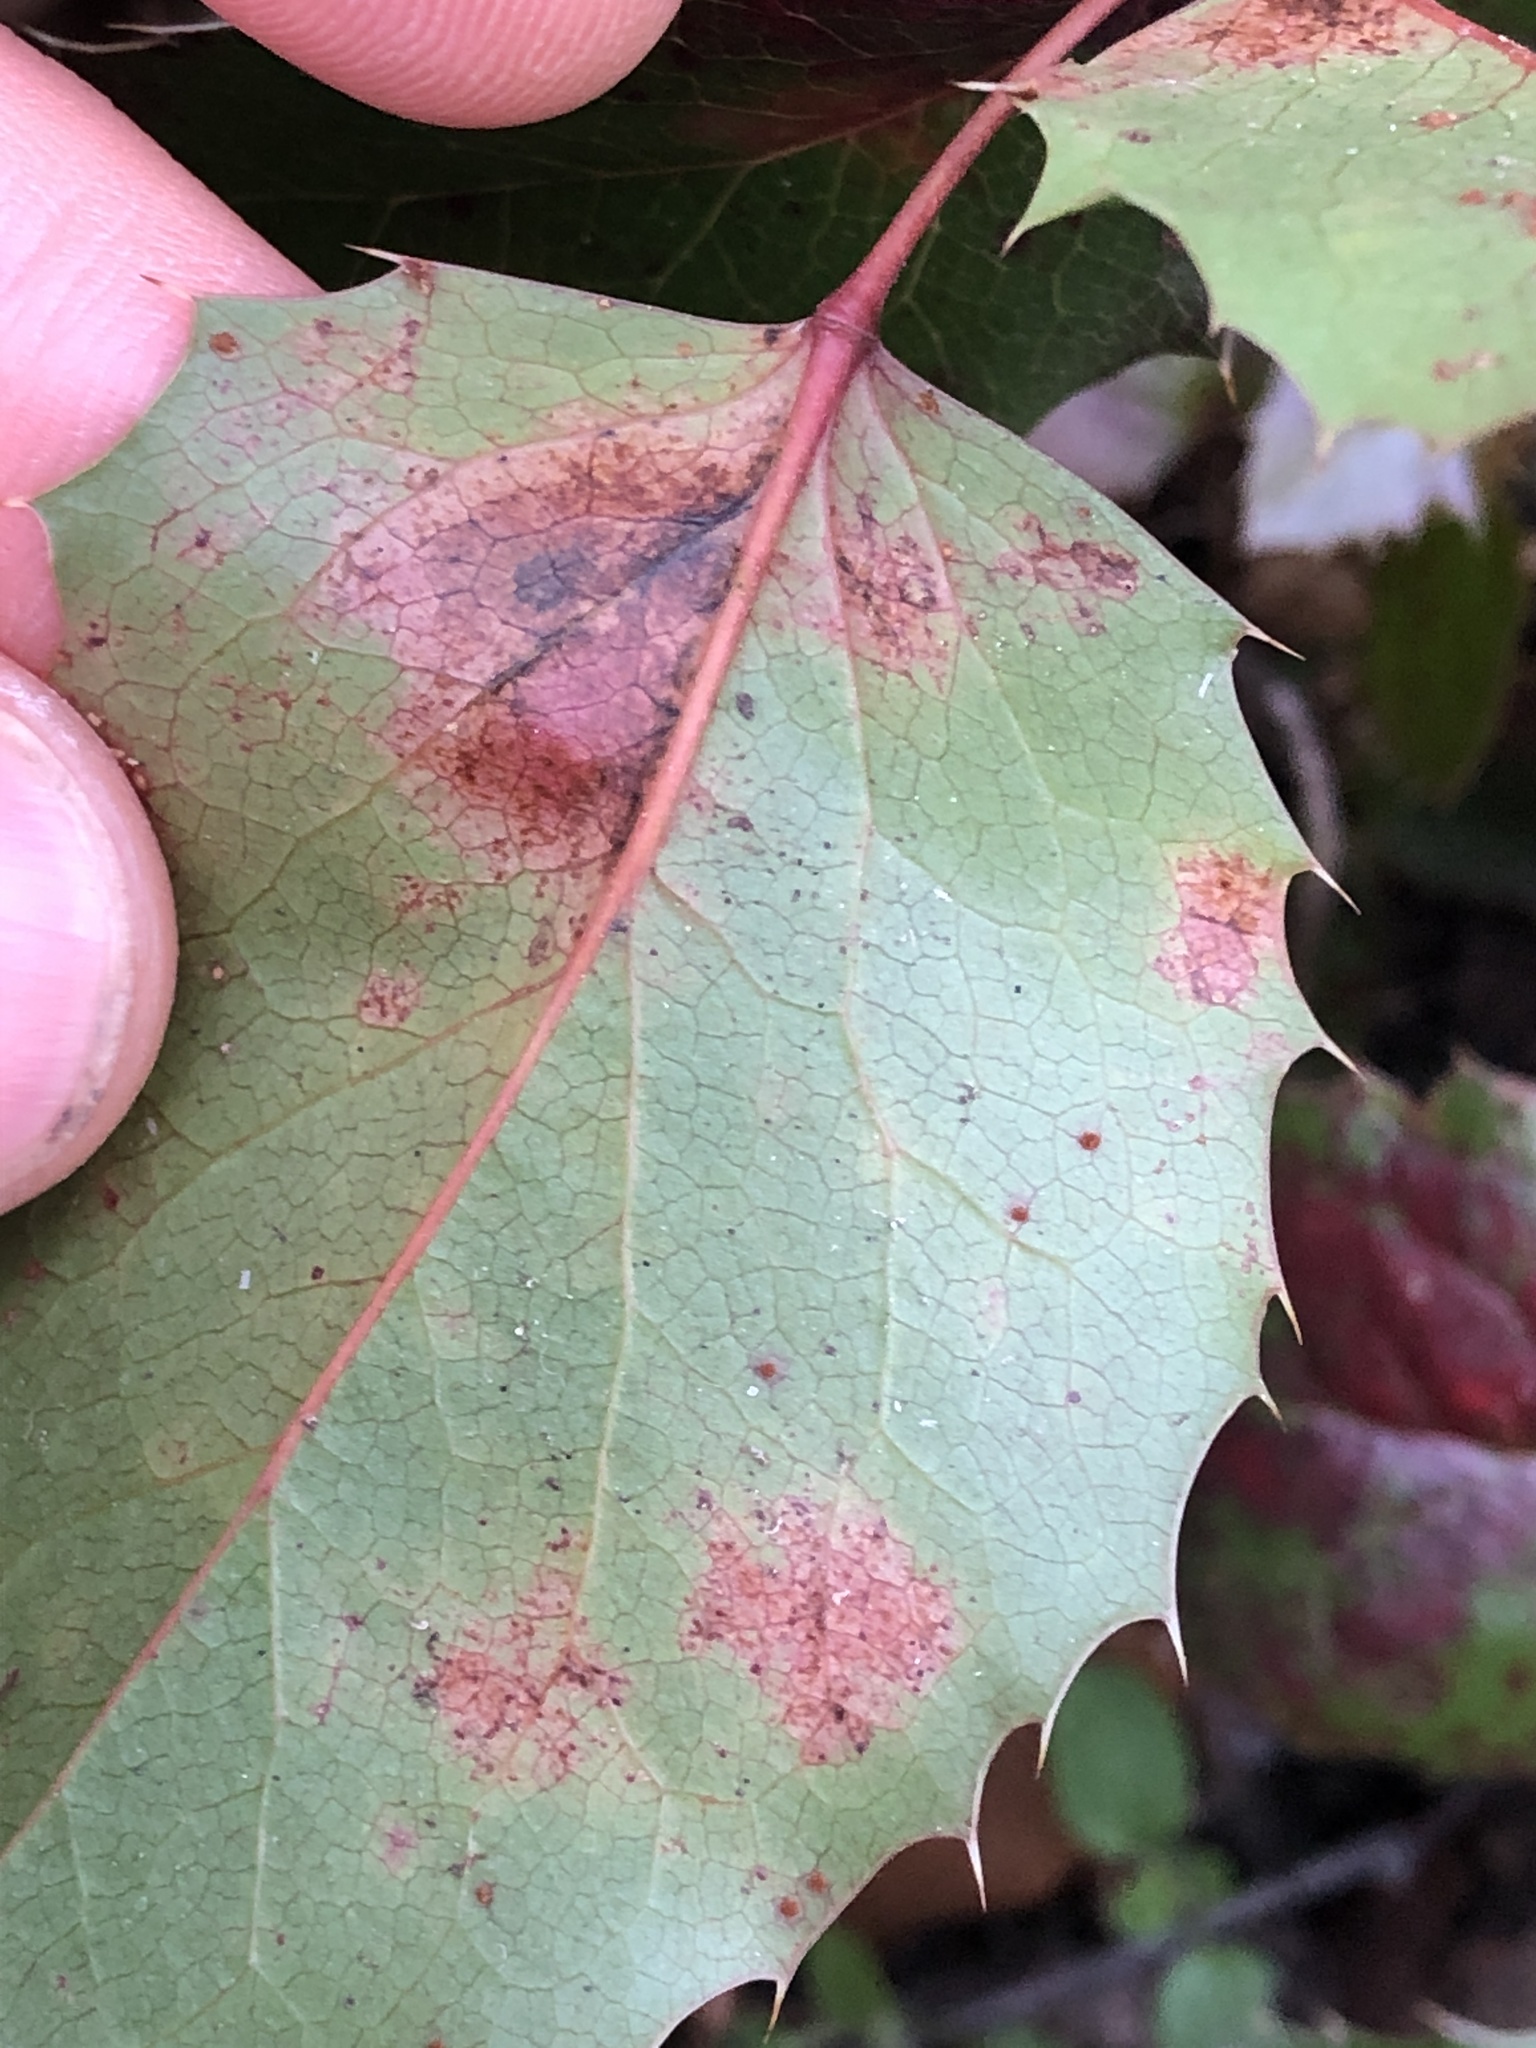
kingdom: Fungi
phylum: Basidiomycota
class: Pucciniomycetes
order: Pucciniales
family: Pucciniaceae
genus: Cumminsiella
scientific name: Cumminsiella mirabilissima
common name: Mahonia rust
